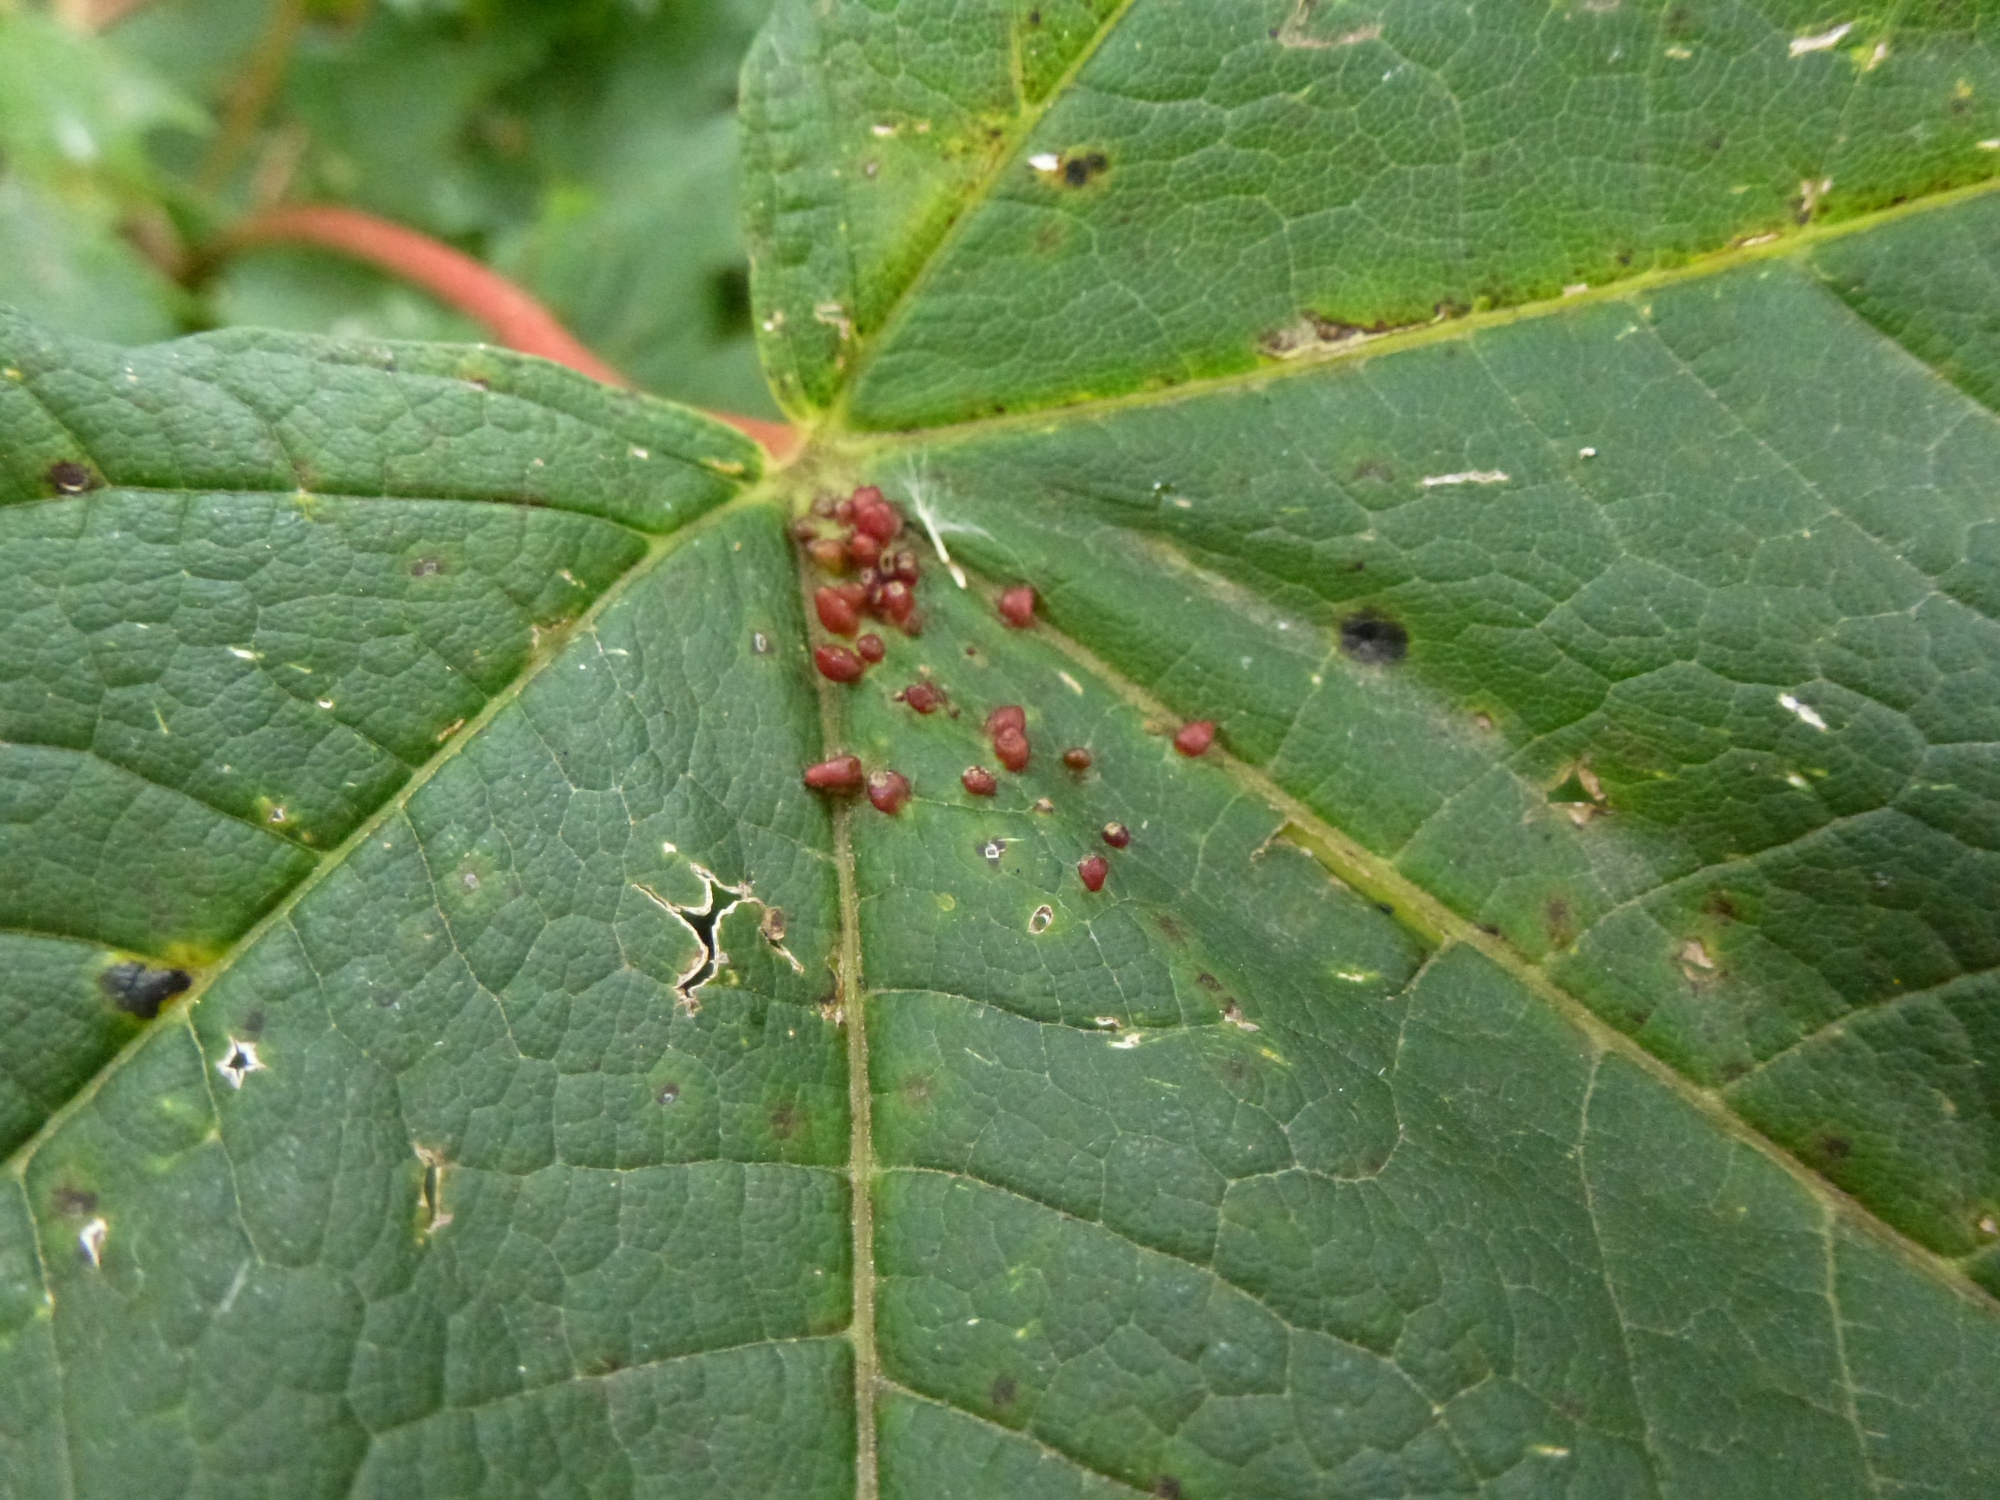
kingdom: Animalia
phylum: Arthropoda
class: Arachnida
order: Trombidiformes
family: Eriophyidae
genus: Aceria
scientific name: Aceria cephaloneus
